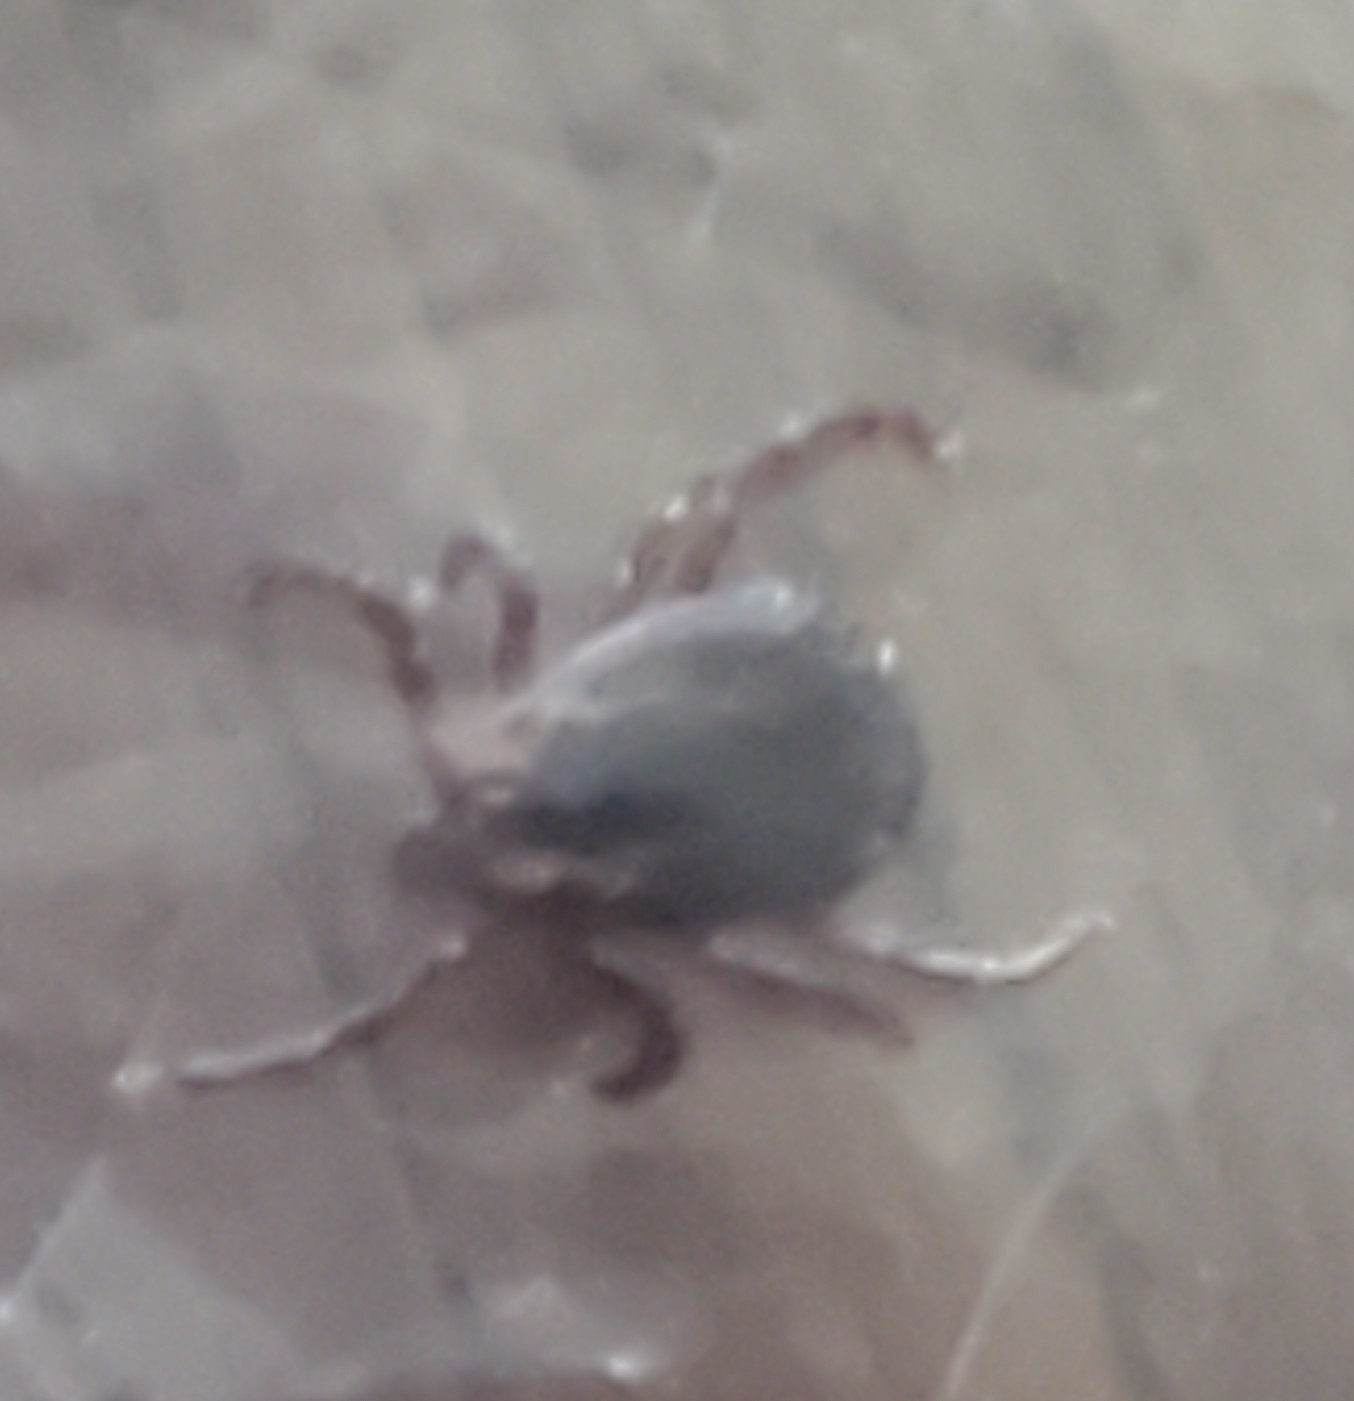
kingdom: Animalia
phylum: Arthropoda
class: Arachnida
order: Ixodida
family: Ixodidae
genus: Dermacentor
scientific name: Dermacentor variabilis
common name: American dog tick
